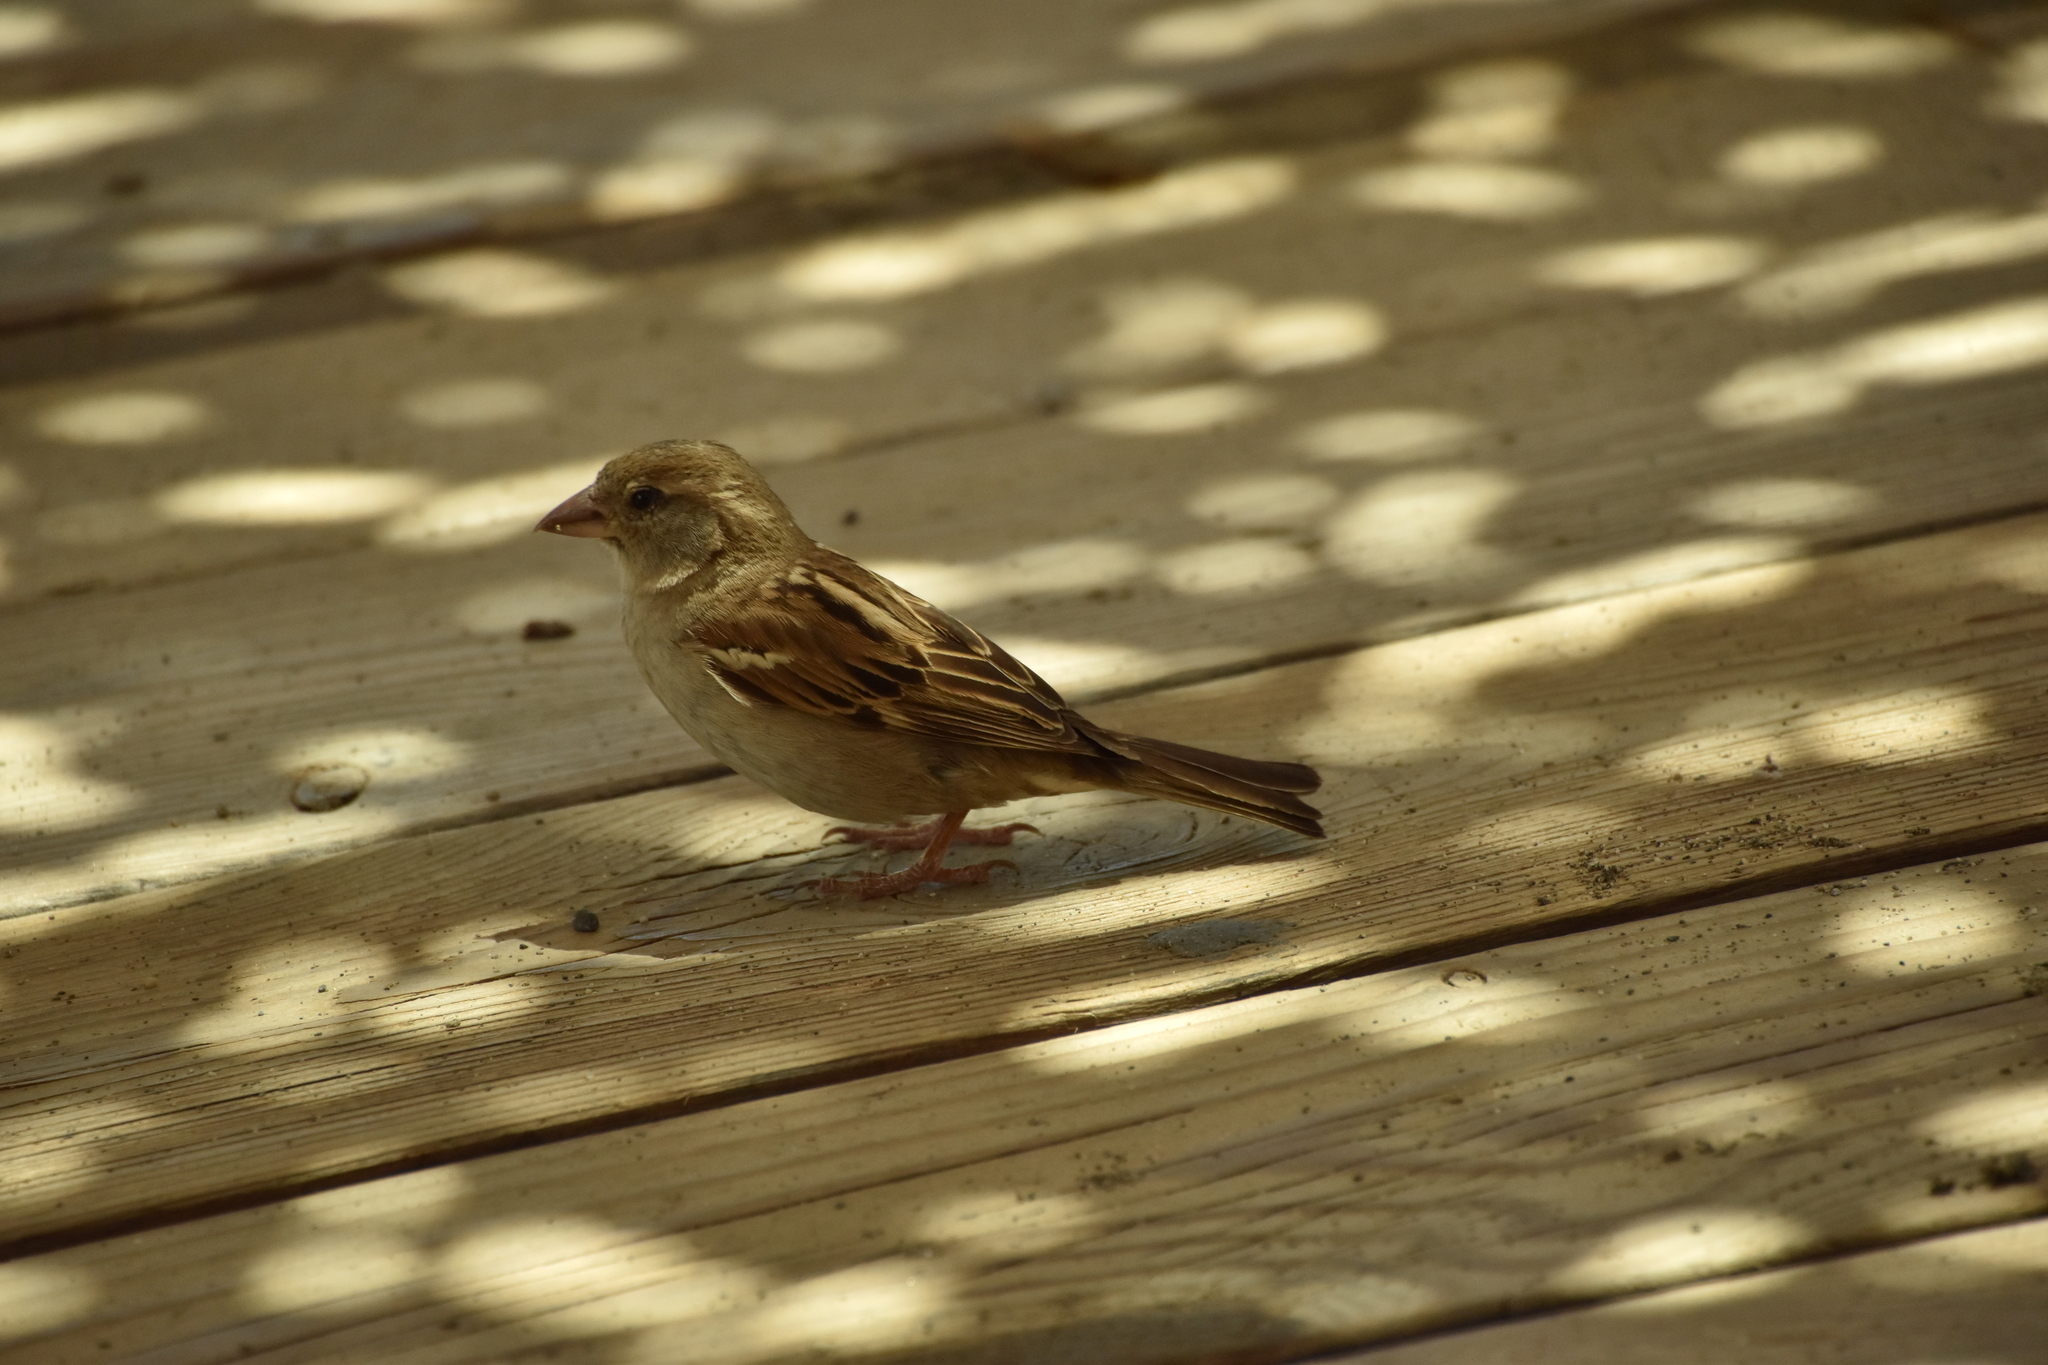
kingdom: Animalia
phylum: Chordata
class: Aves
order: Passeriformes
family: Passeridae
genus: Passer
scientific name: Passer domesticus
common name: House sparrow
